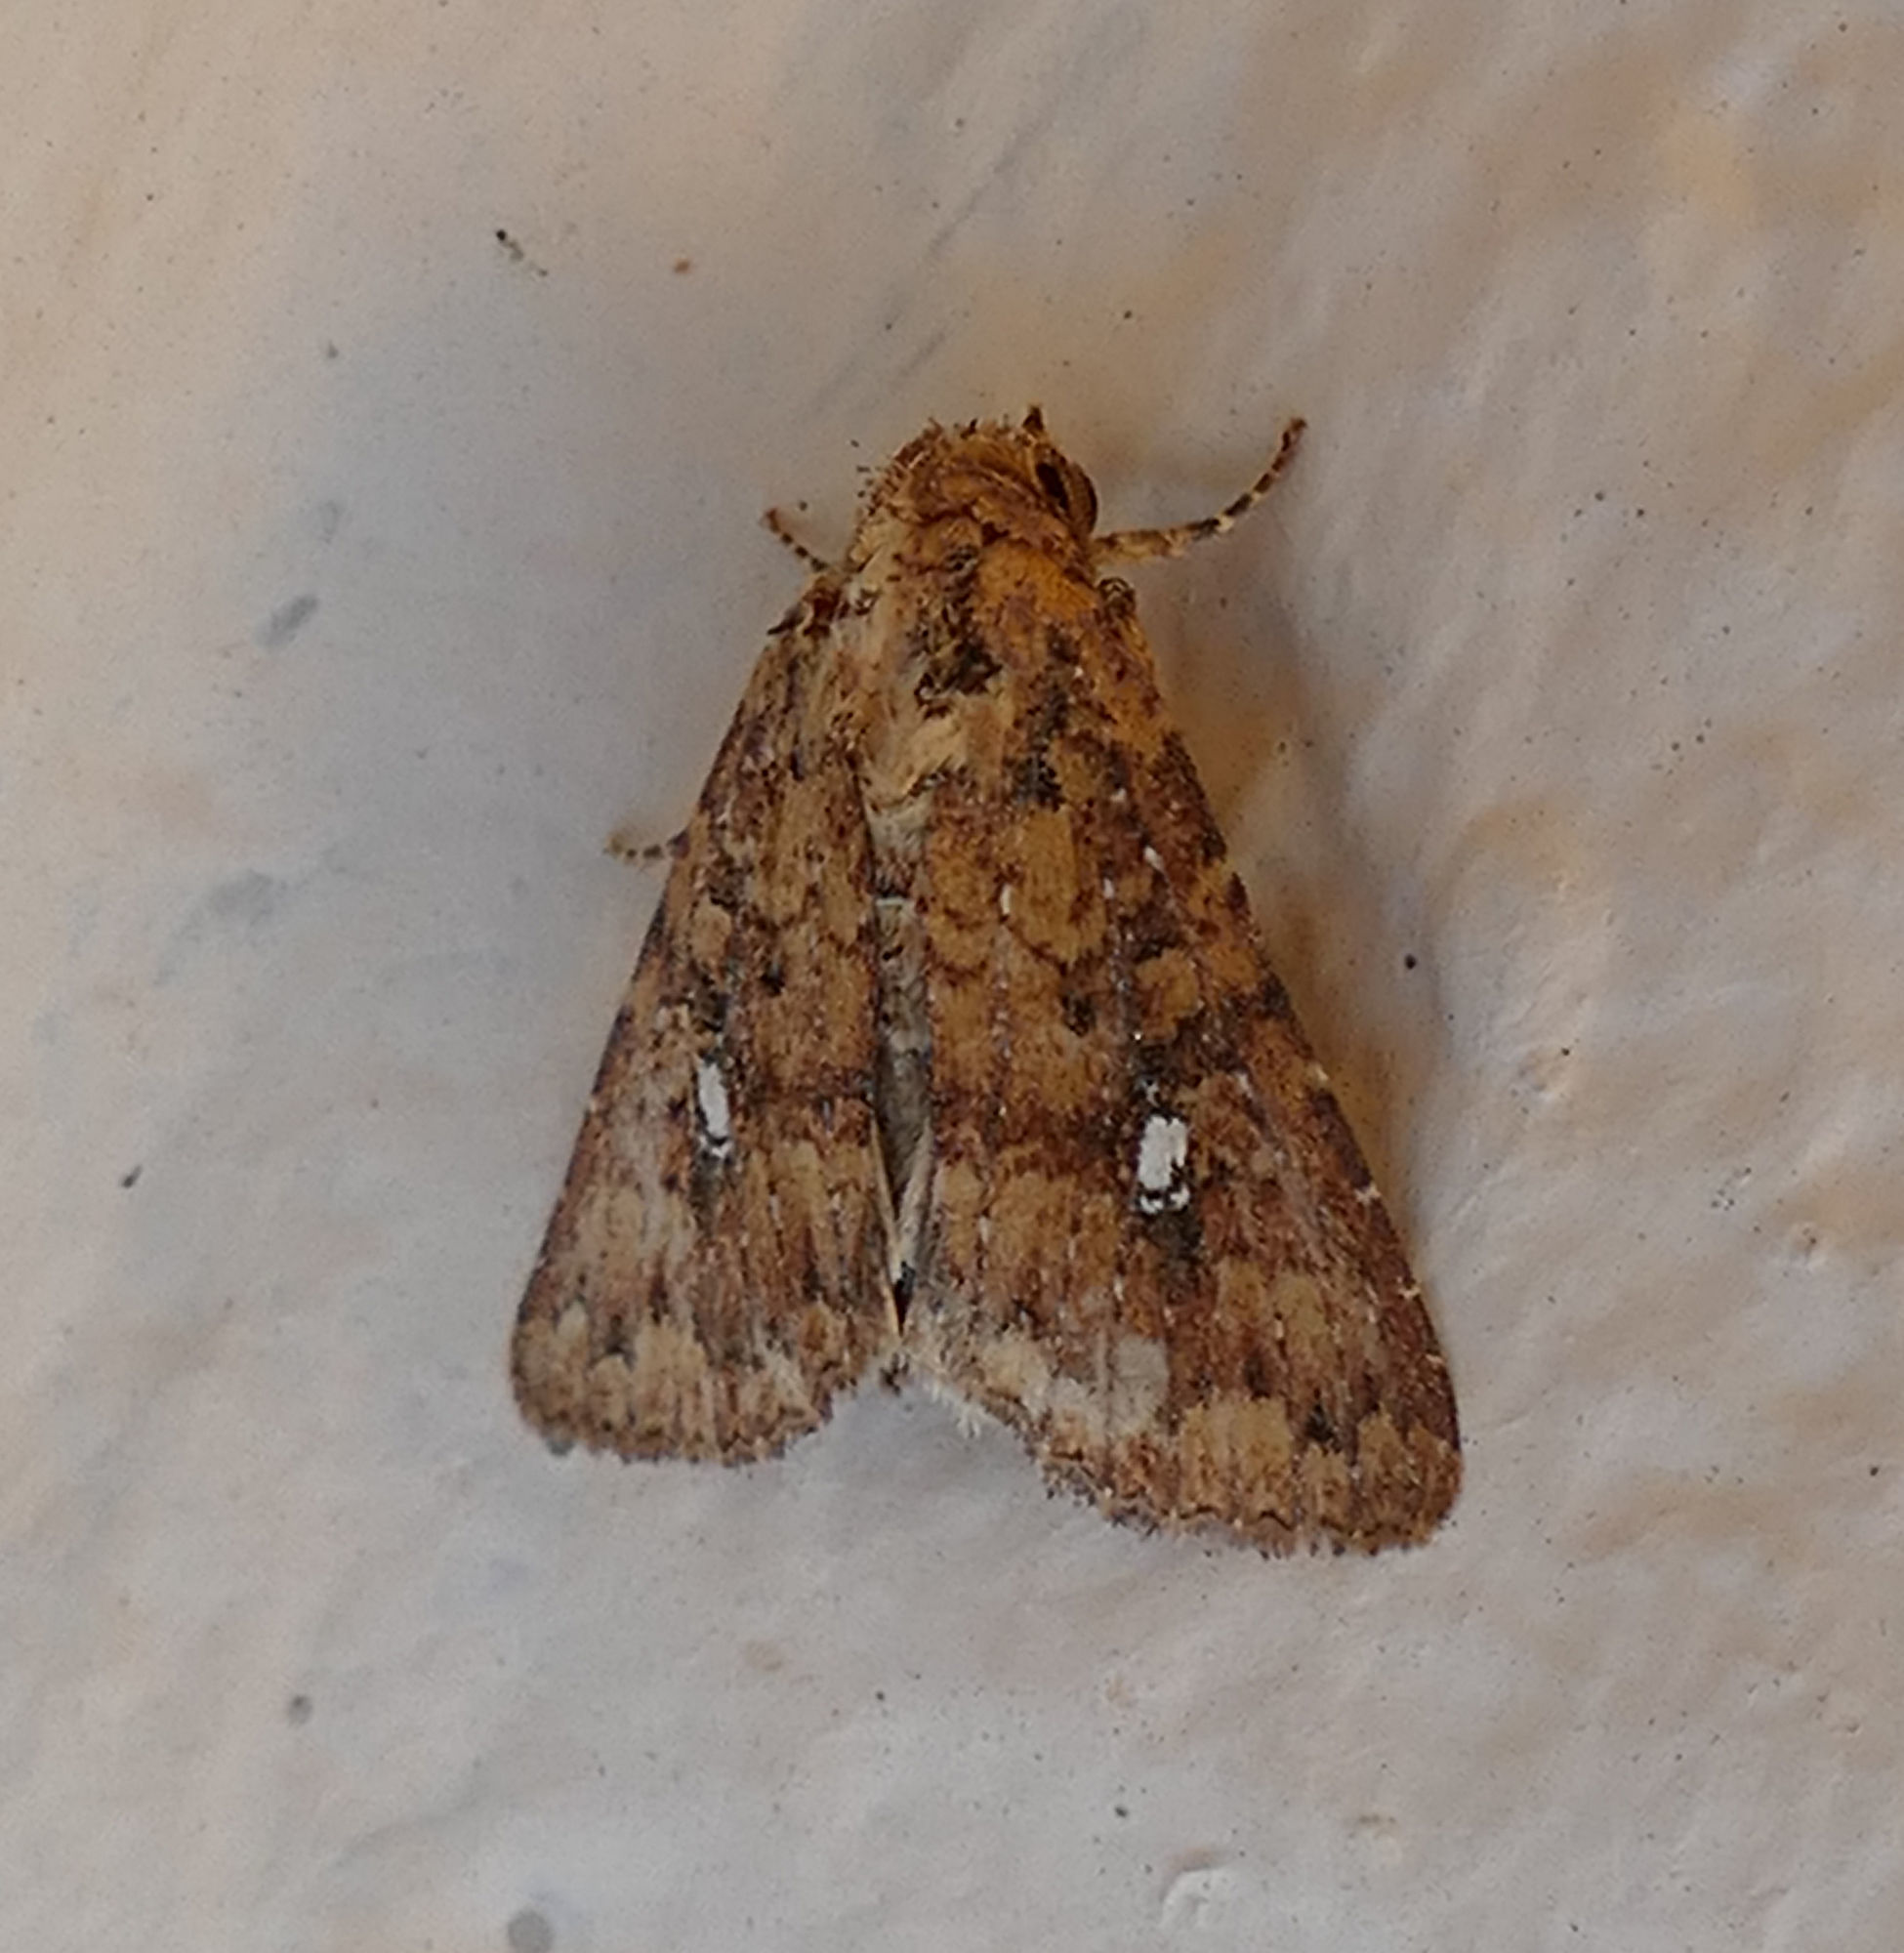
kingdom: Animalia
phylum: Arthropoda
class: Insecta
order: Lepidoptera
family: Noctuidae
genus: Condica
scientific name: Condica mobilis
